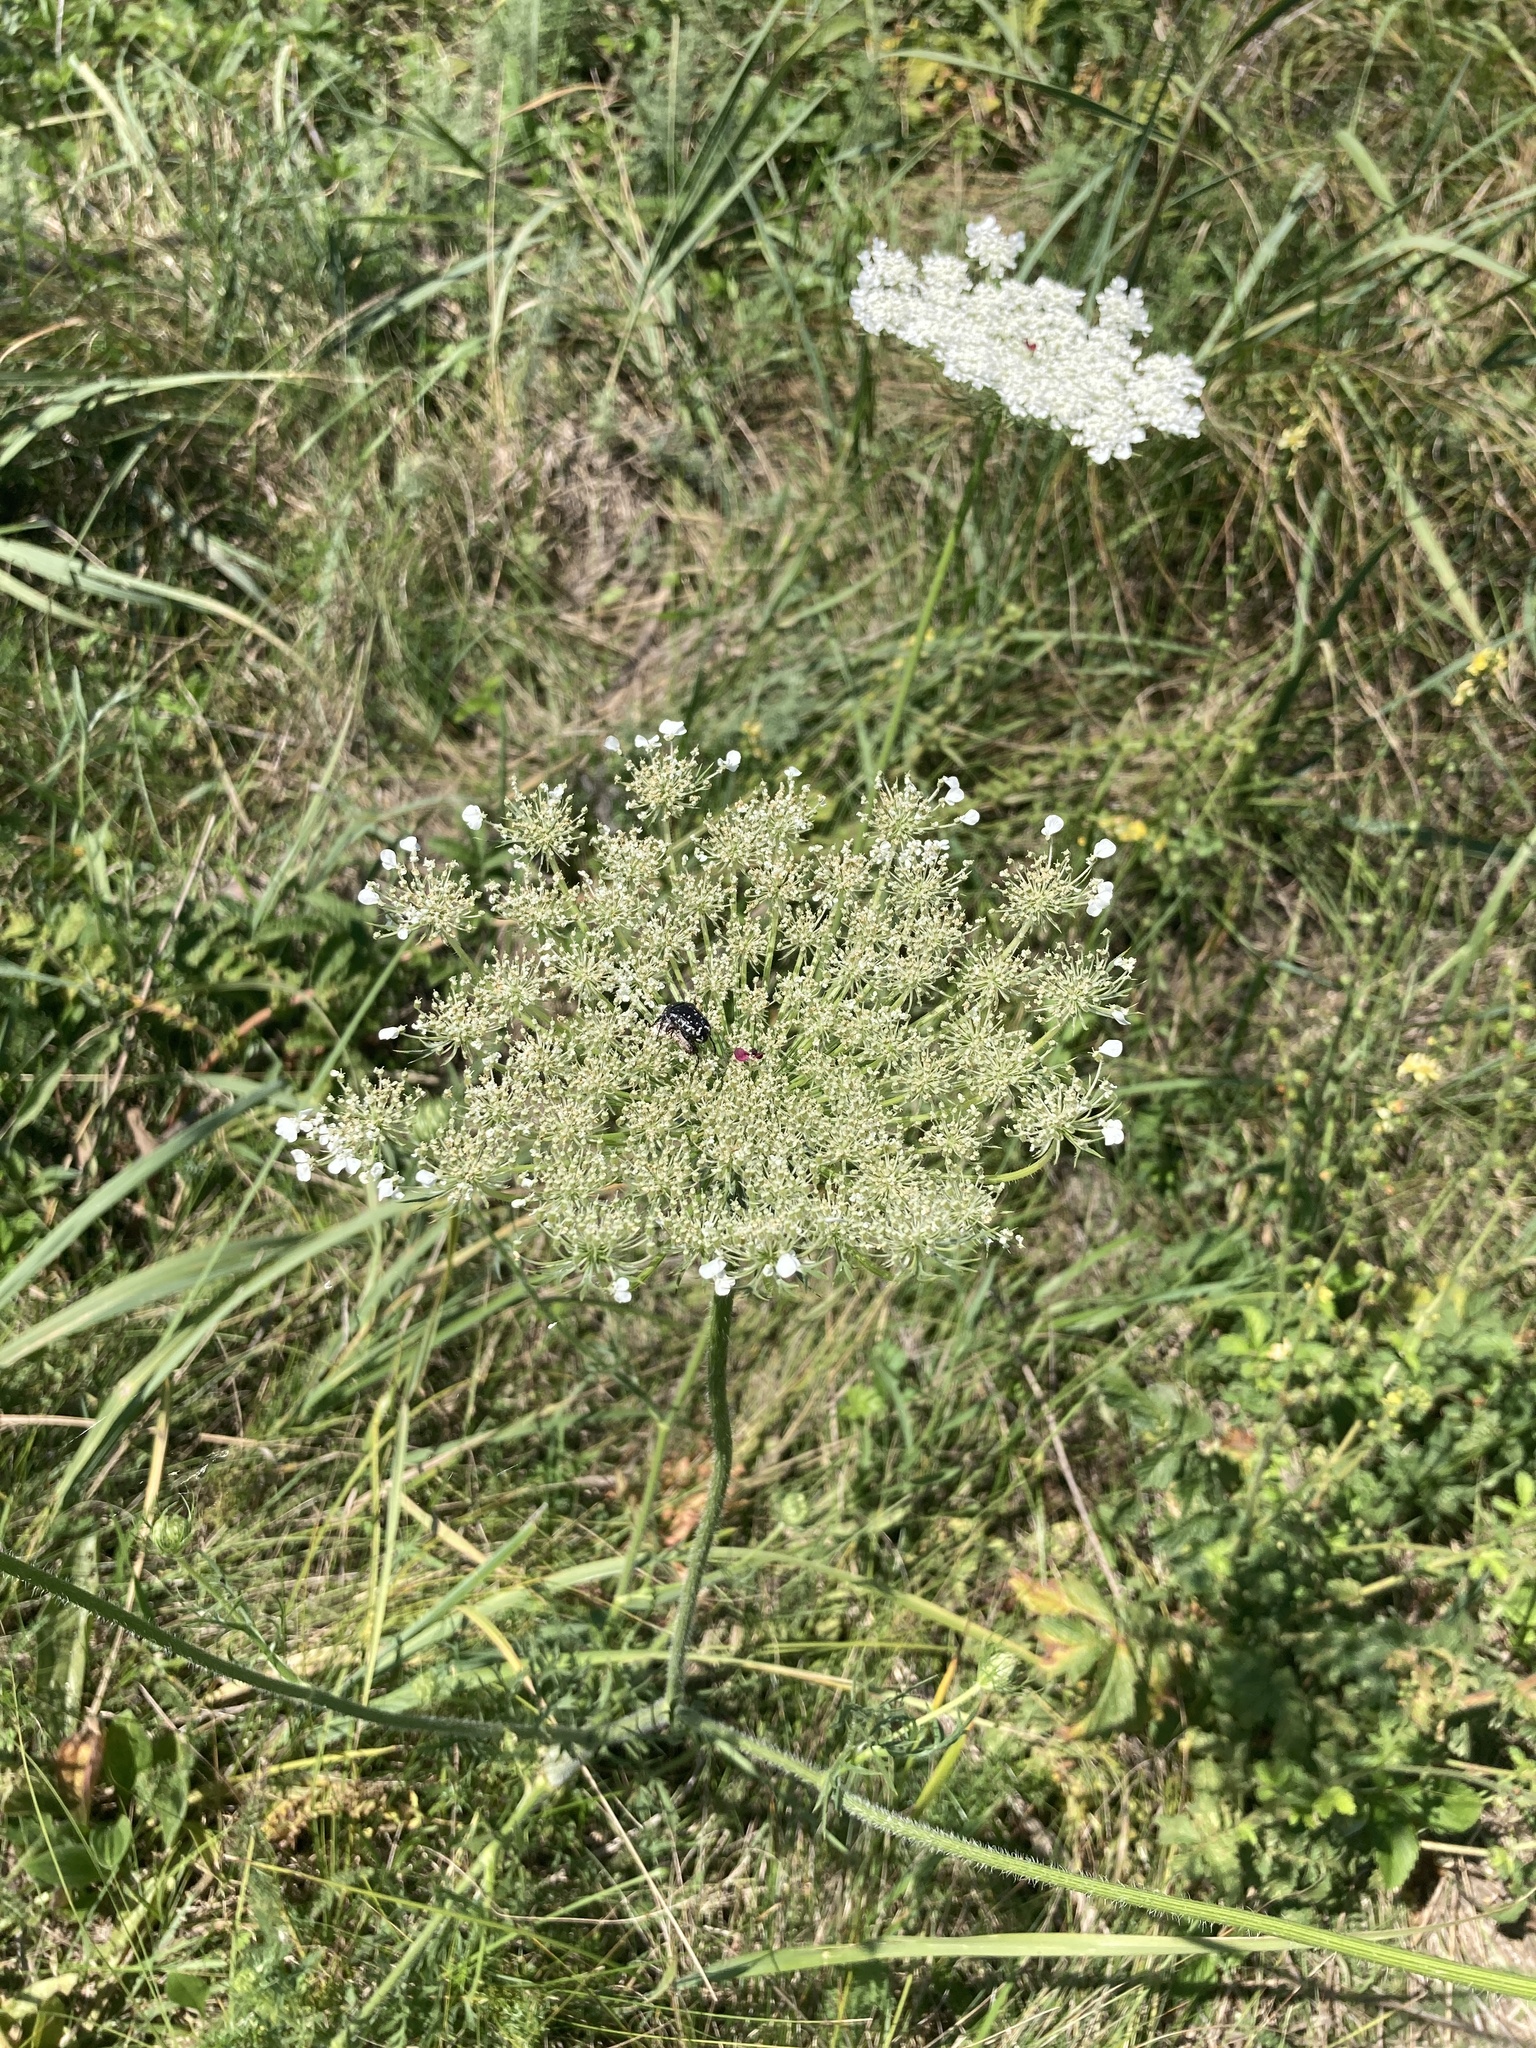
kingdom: Plantae
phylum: Tracheophyta
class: Magnoliopsida
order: Apiales
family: Apiaceae
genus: Daucus
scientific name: Daucus carota
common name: Wild carrot
